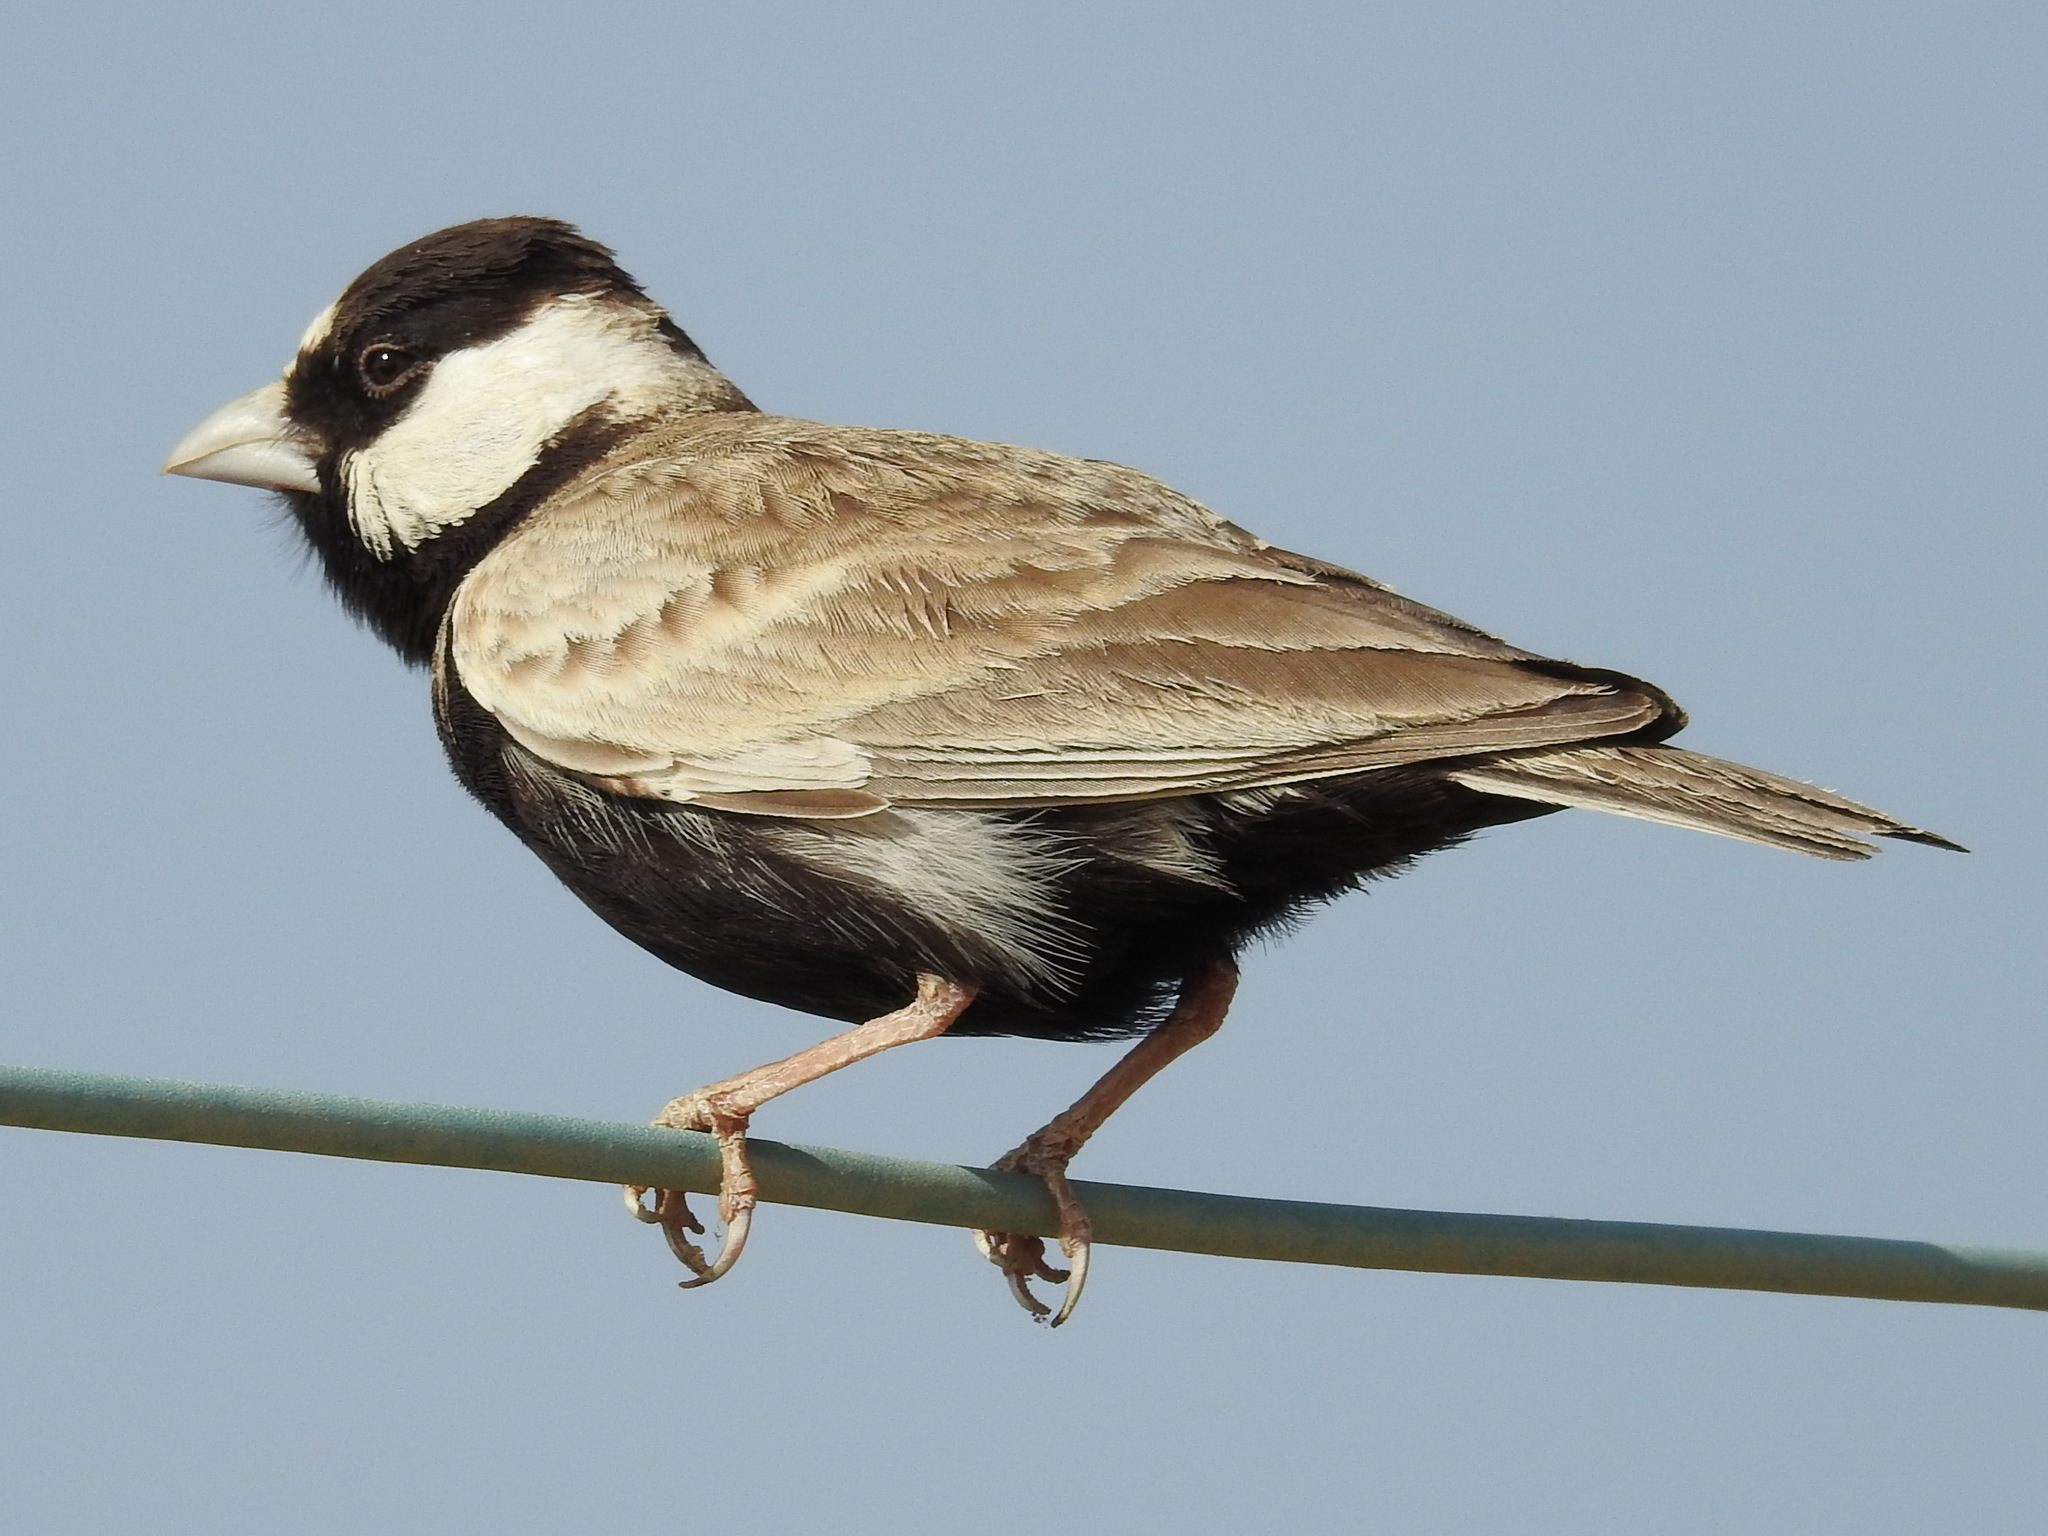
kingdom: Animalia
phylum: Chordata
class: Aves
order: Passeriformes
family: Alaudidae
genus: Eremopterix
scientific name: Eremopterix nigriceps
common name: Black-crowned sparrow-lark
